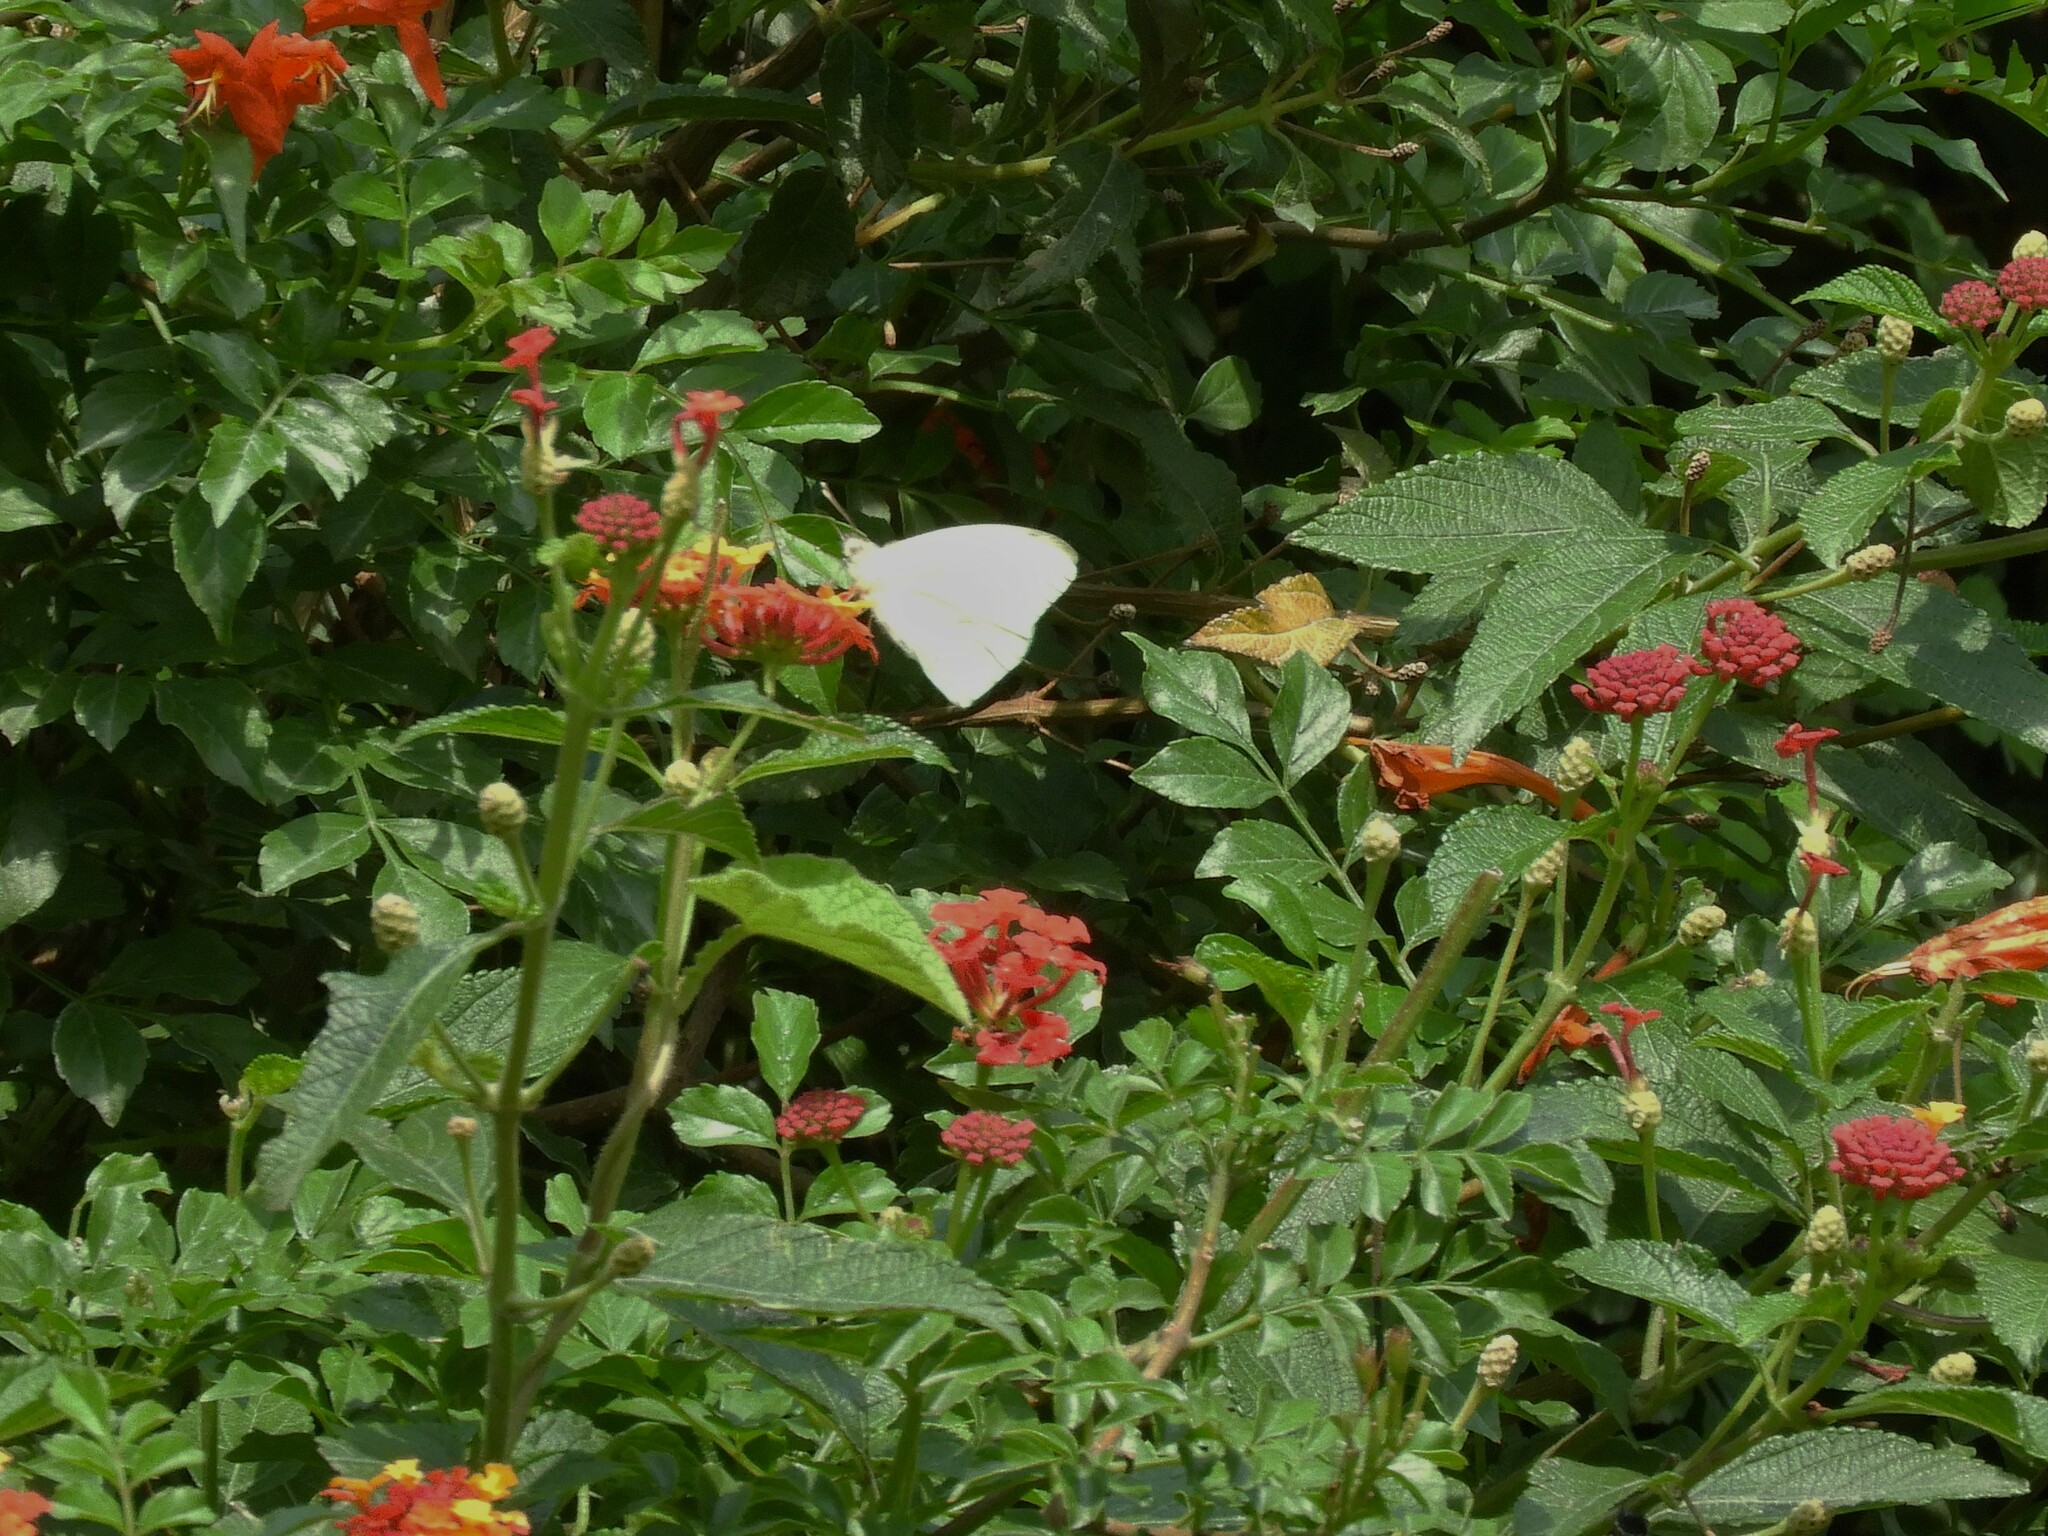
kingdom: Animalia
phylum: Arthropoda
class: Insecta
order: Lepidoptera
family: Pieridae
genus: Leptophobia
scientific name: Leptophobia aripa
